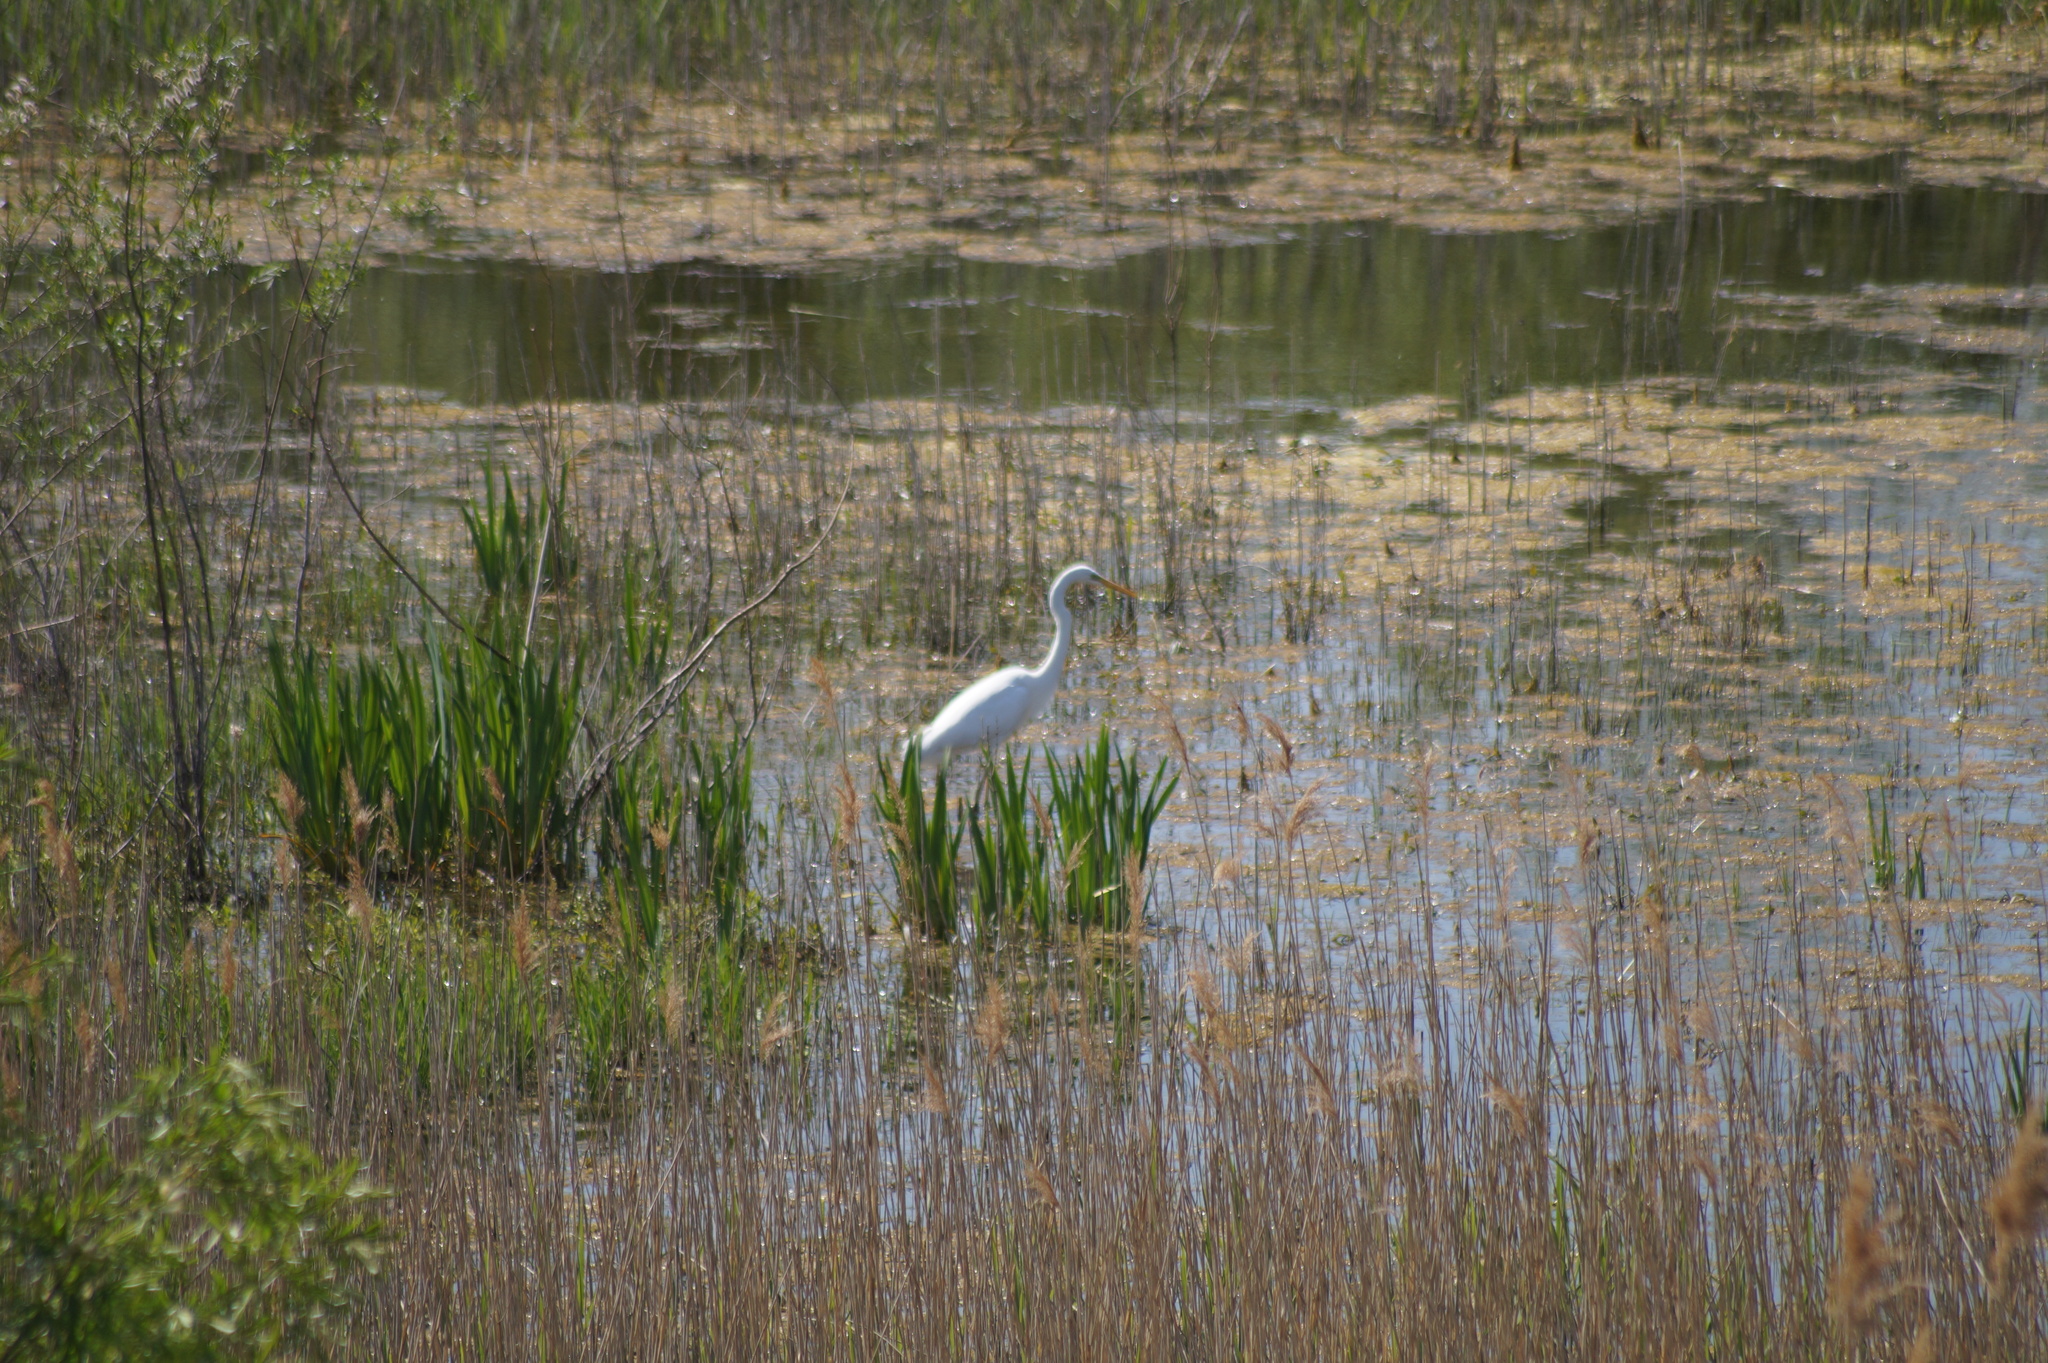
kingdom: Animalia
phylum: Chordata
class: Aves
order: Pelecaniformes
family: Ardeidae
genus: Ardea
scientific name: Ardea alba
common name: Great egret
